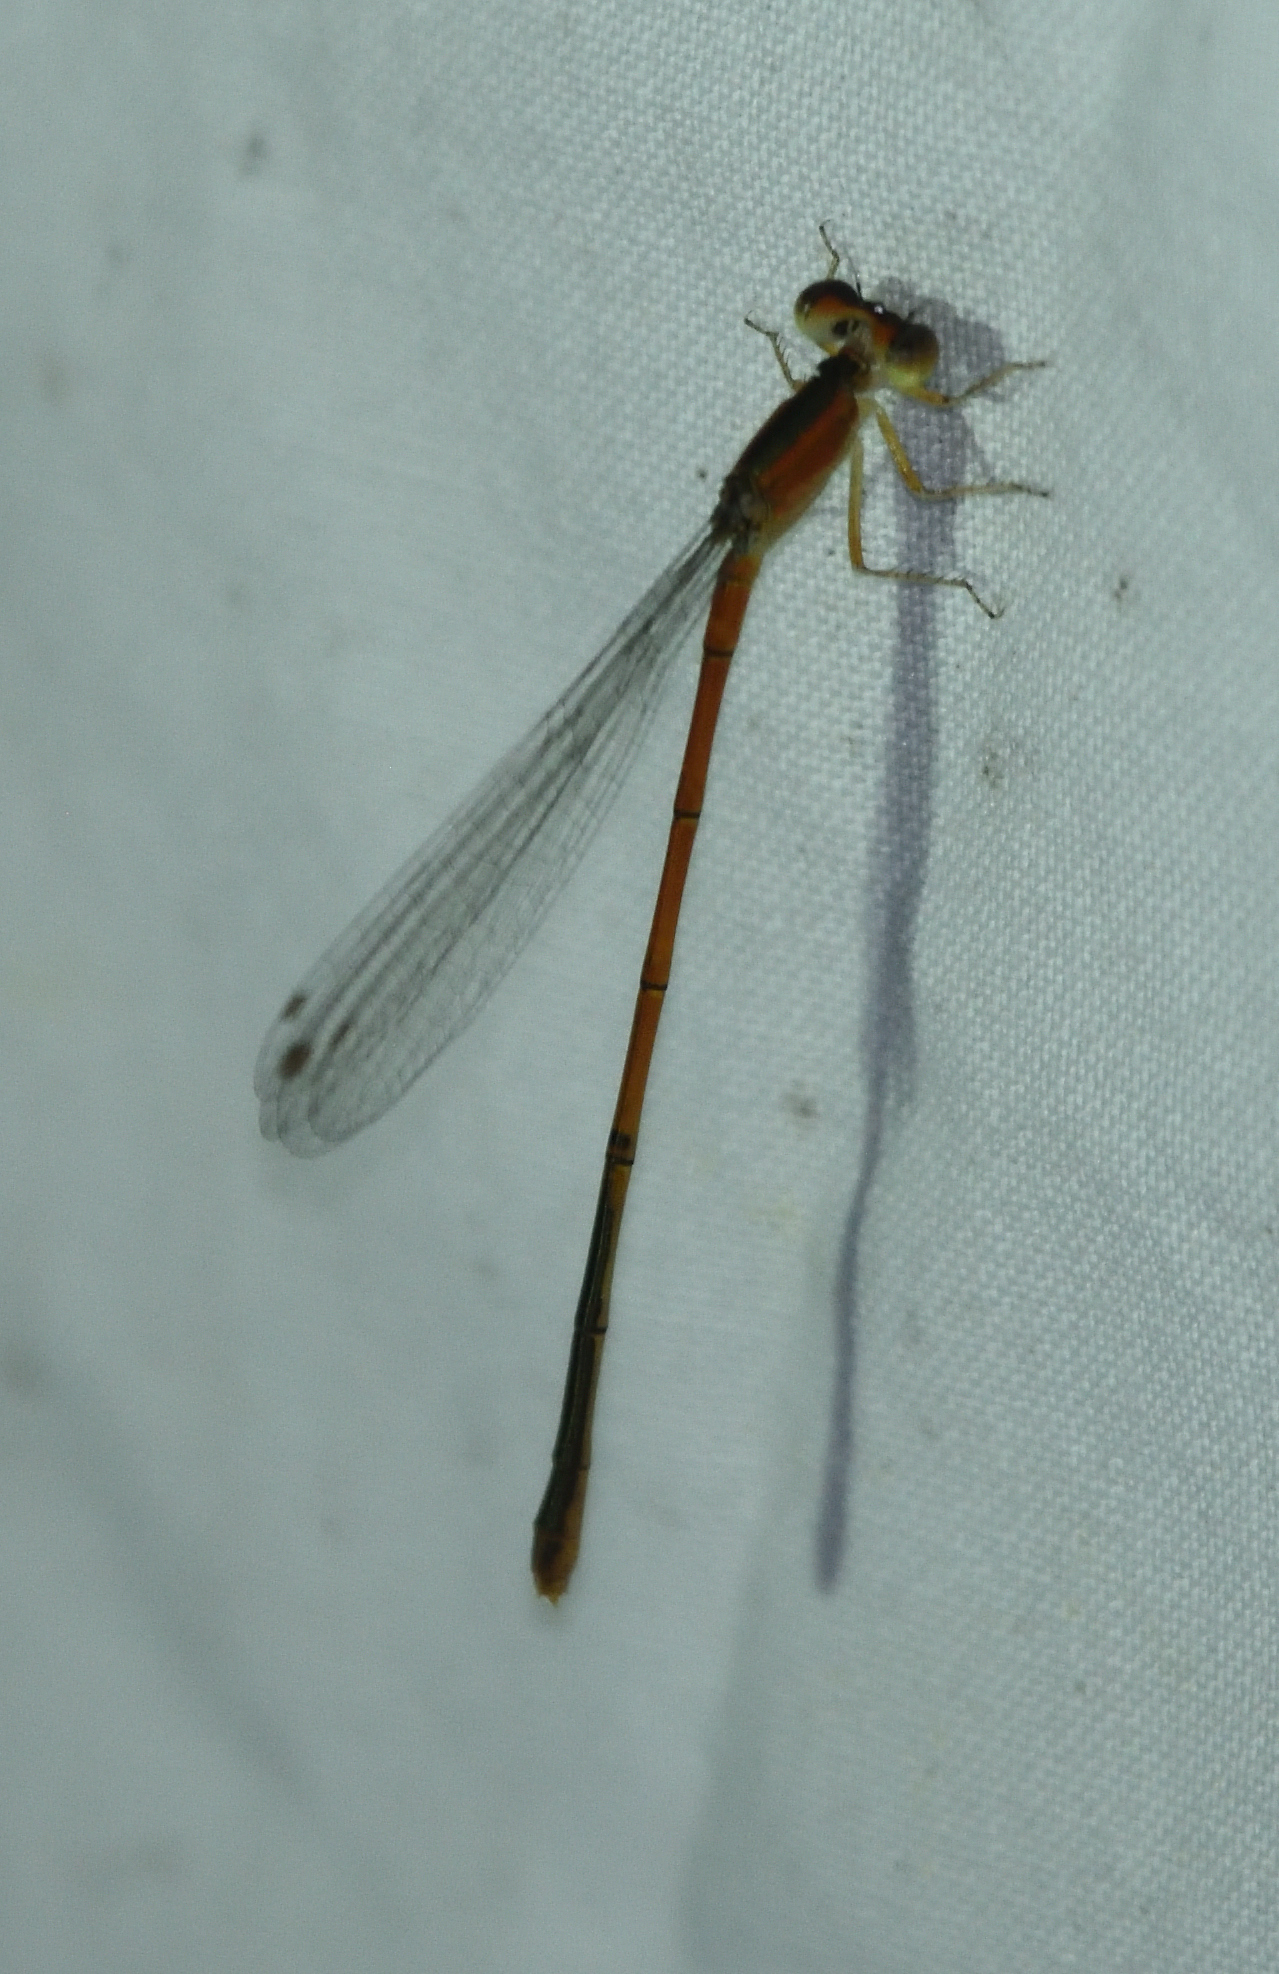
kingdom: Animalia
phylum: Arthropoda
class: Insecta
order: Odonata
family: Coenagrionidae
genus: Ischnura
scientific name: Ischnura hastata
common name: Citrine forktail
